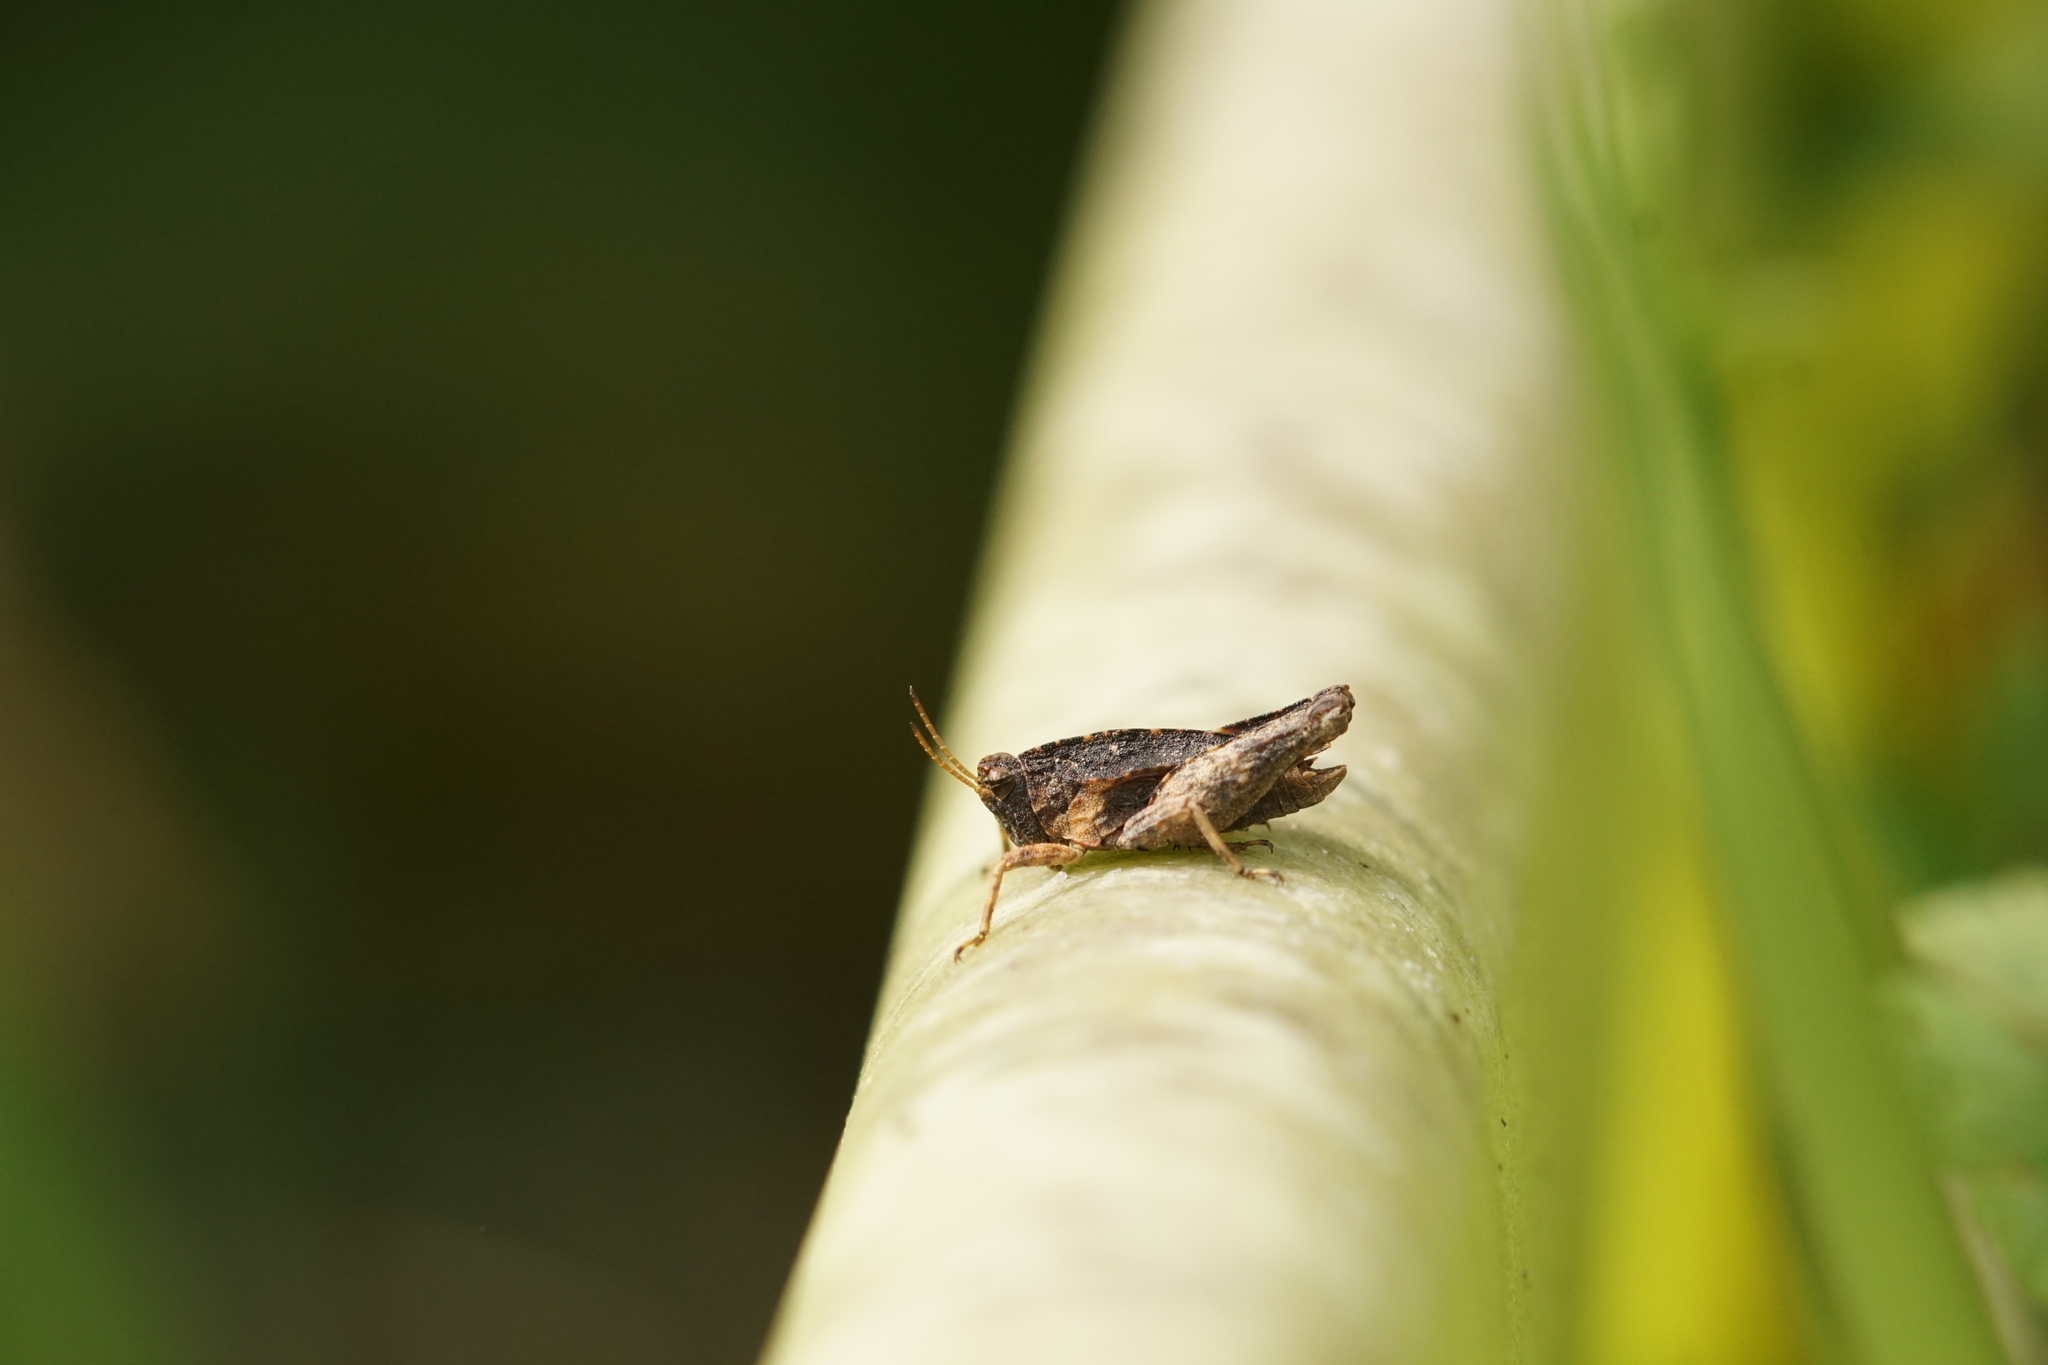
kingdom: Animalia
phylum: Arthropoda
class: Insecta
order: Orthoptera
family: Tetrigidae
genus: Tetrix
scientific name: Tetrix undulata
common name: Common groundhopper
